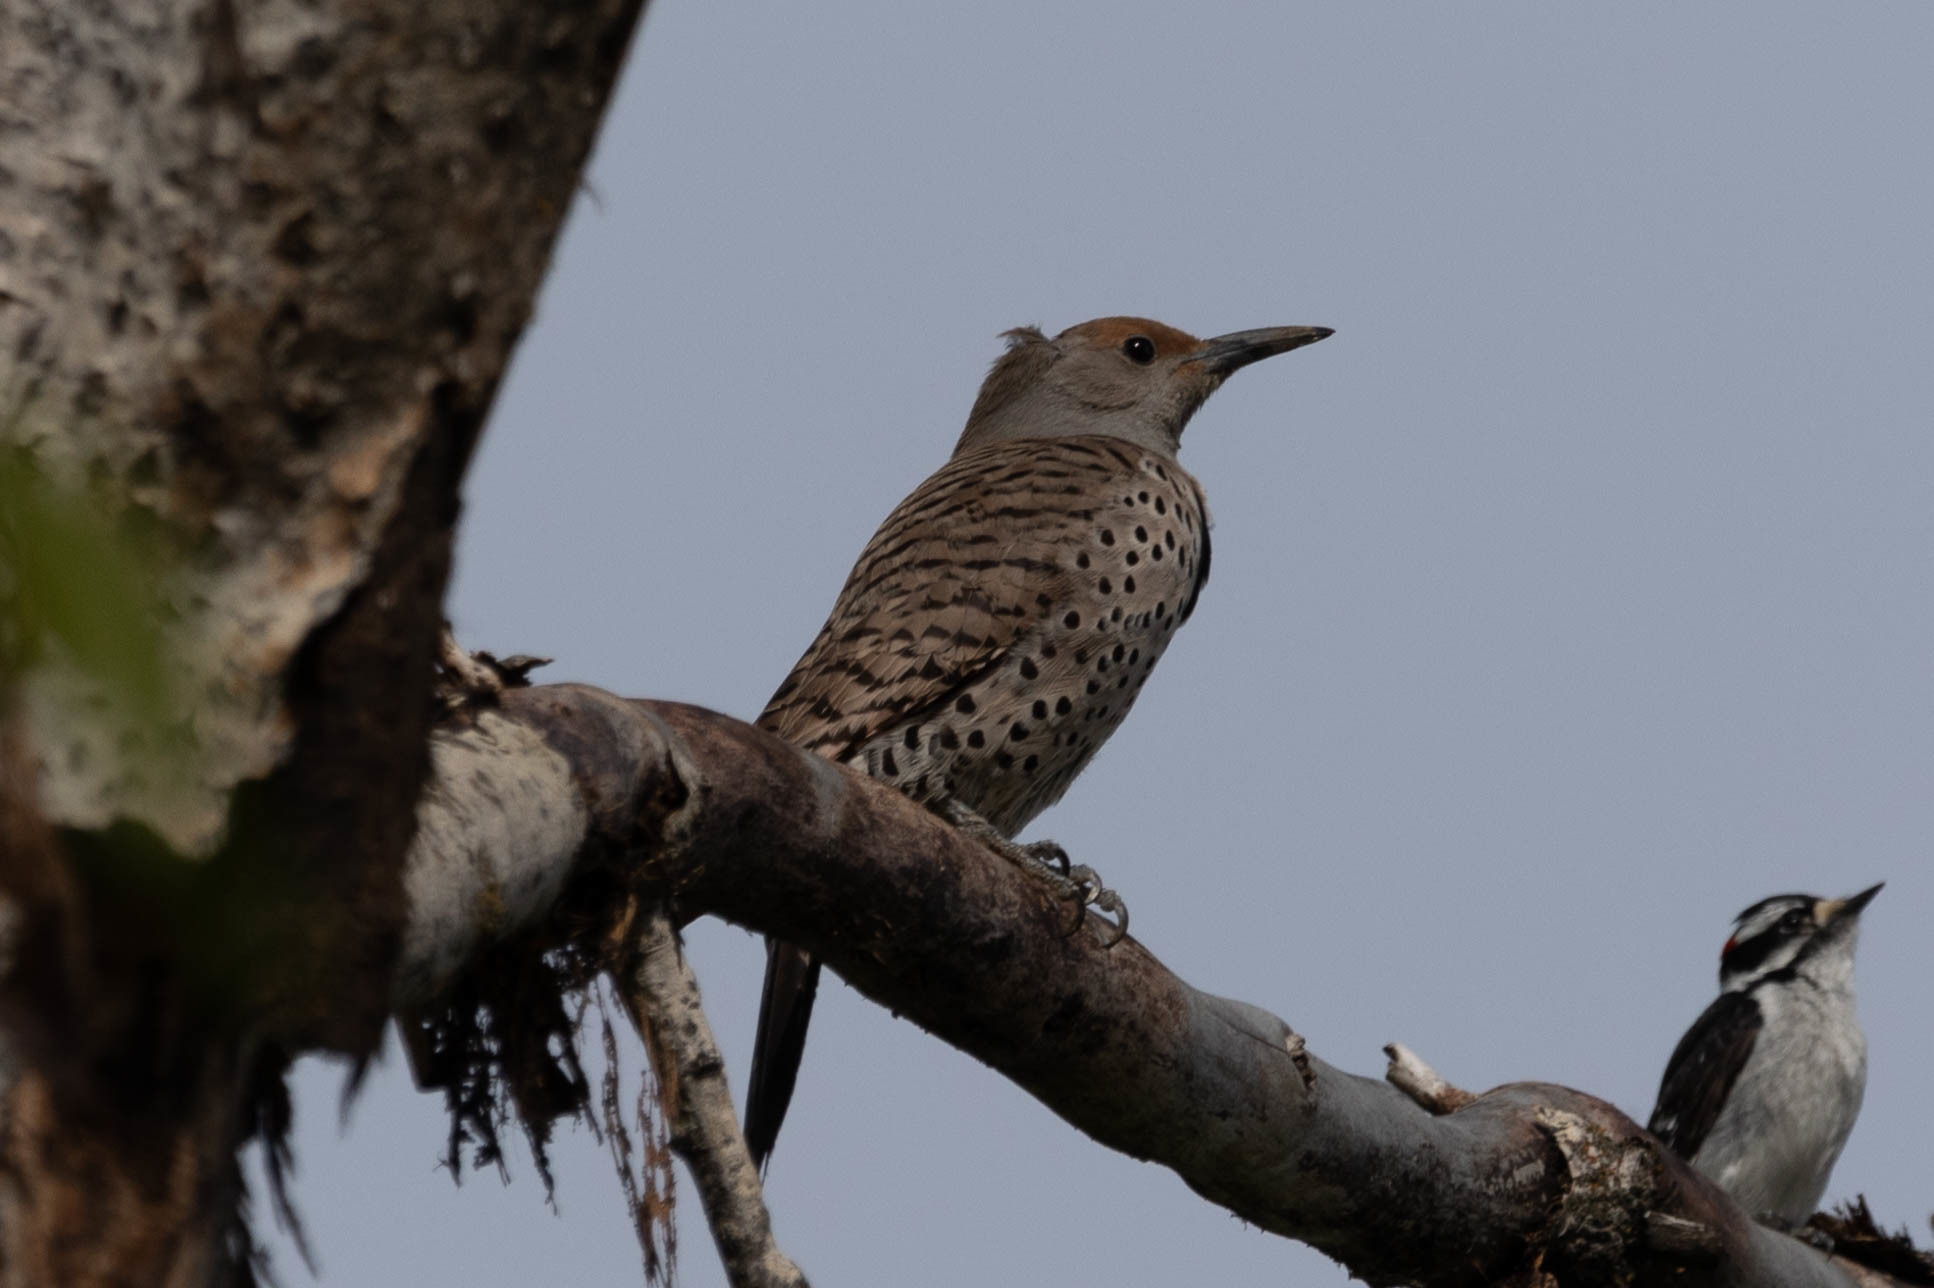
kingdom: Animalia
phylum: Chordata
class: Aves
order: Piciformes
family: Picidae
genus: Colaptes
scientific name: Colaptes auratus
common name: Northern flicker
